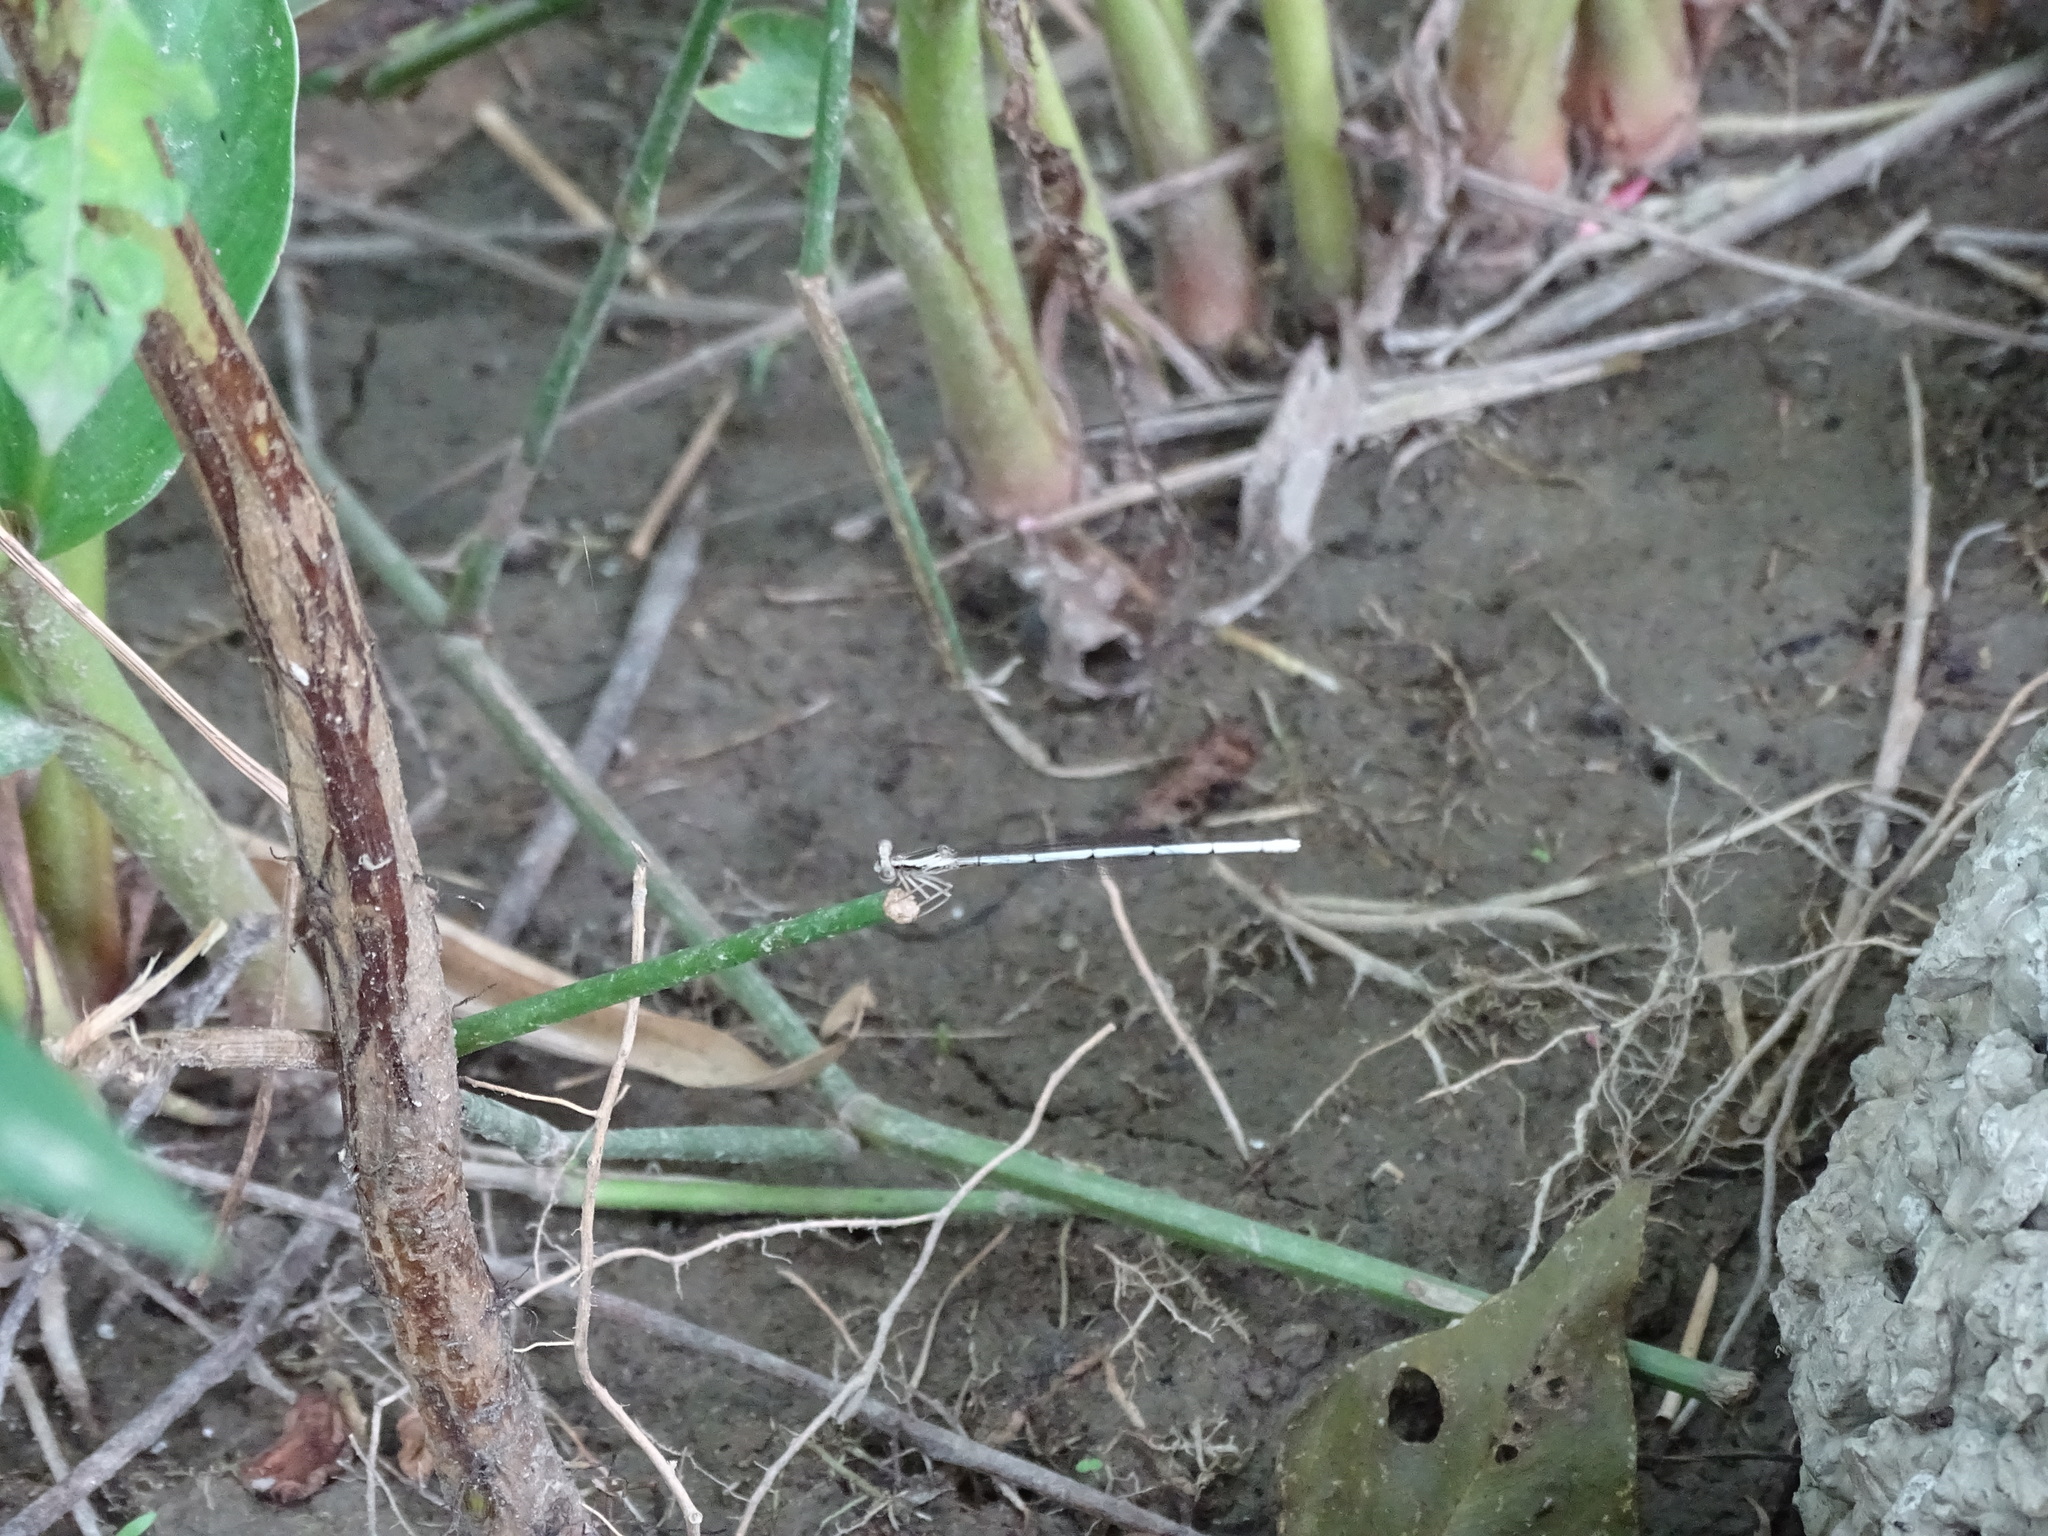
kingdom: Animalia
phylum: Arthropoda
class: Insecta
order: Odonata
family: Platycnemididae
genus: Copera
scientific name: Copera marginipes
